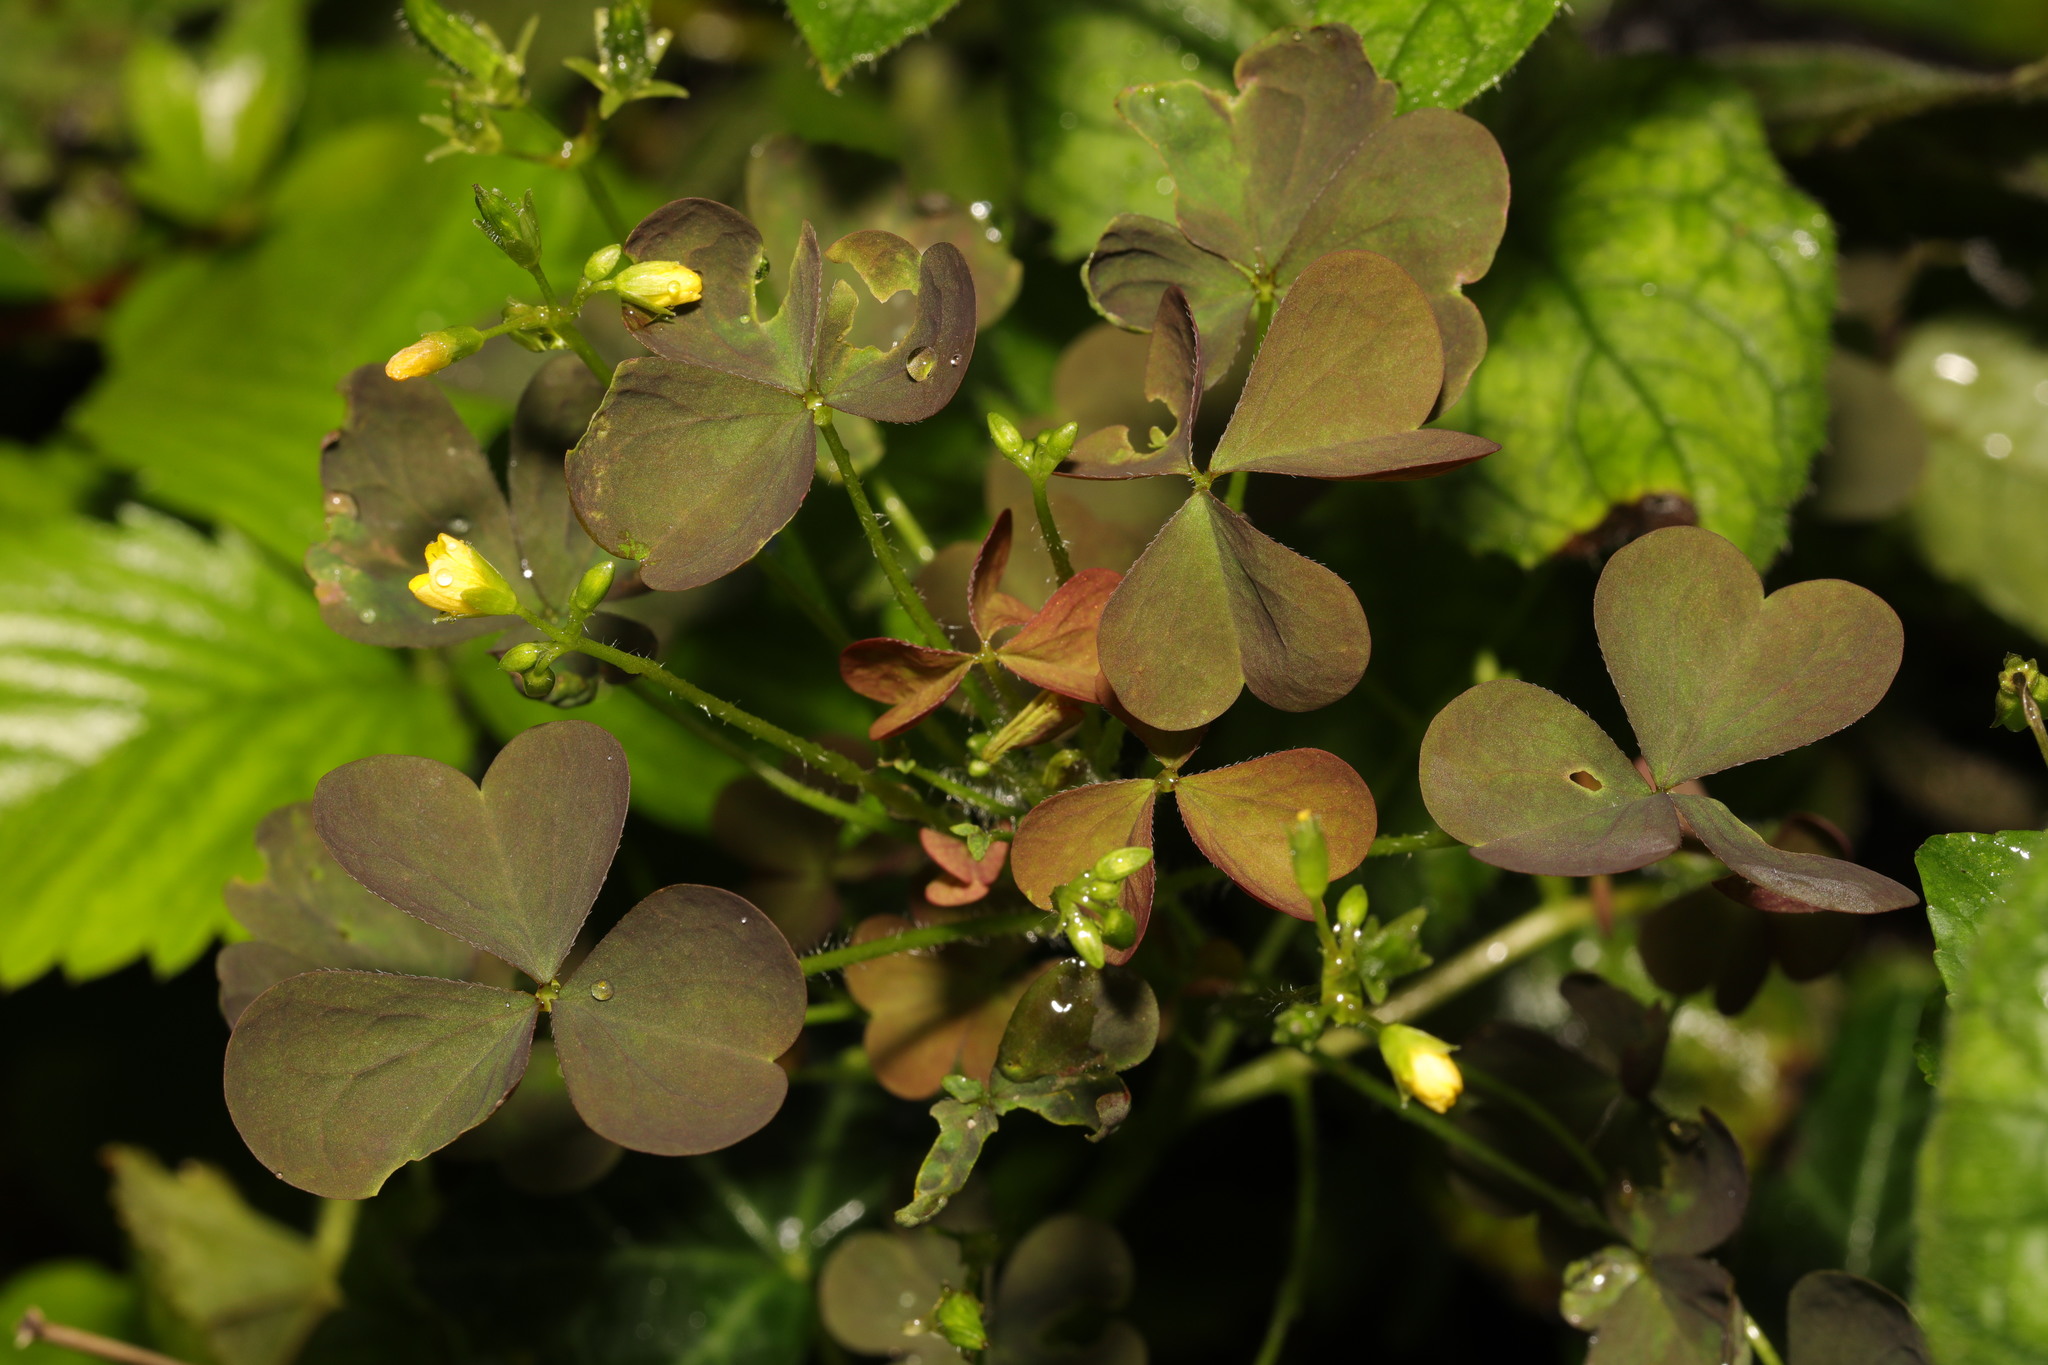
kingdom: Plantae
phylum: Tracheophyta
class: Magnoliopsida
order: Oxalidales
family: Oxalidaceae
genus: Oxalis
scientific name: Oxalis stricta
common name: Upright yellow-sorrel
